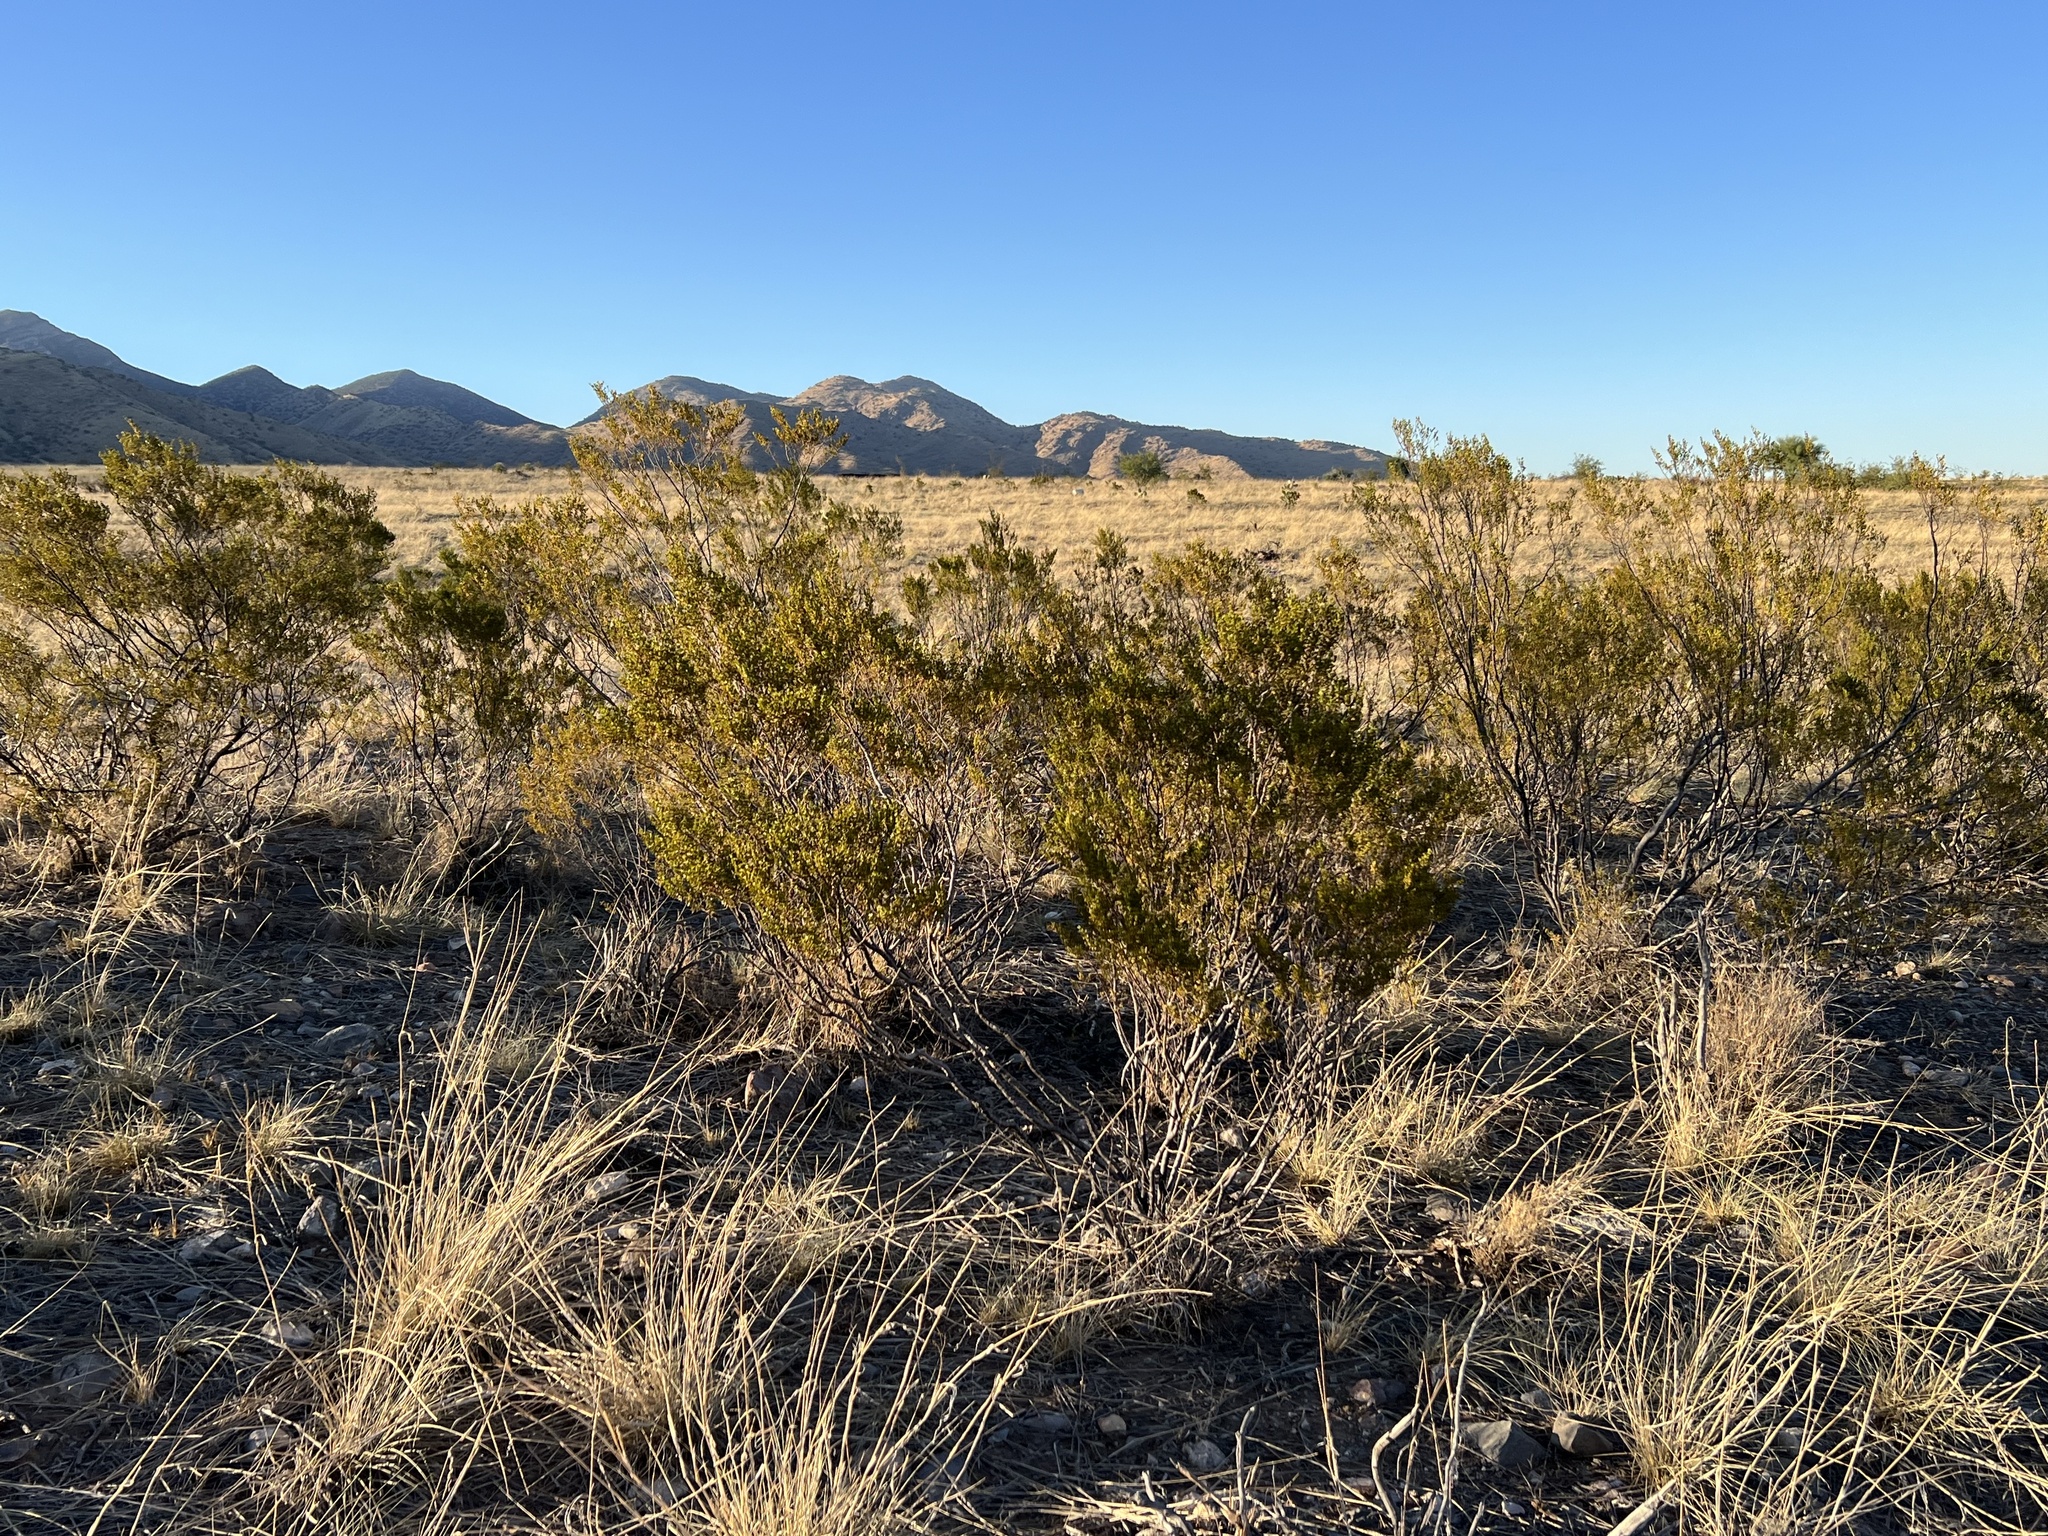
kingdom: Plantae
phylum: Tracheophyta
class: Magnoliopsida
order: Zygophyllales
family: Zygophyllaceae
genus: Larrea
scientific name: Larrea tridentata
